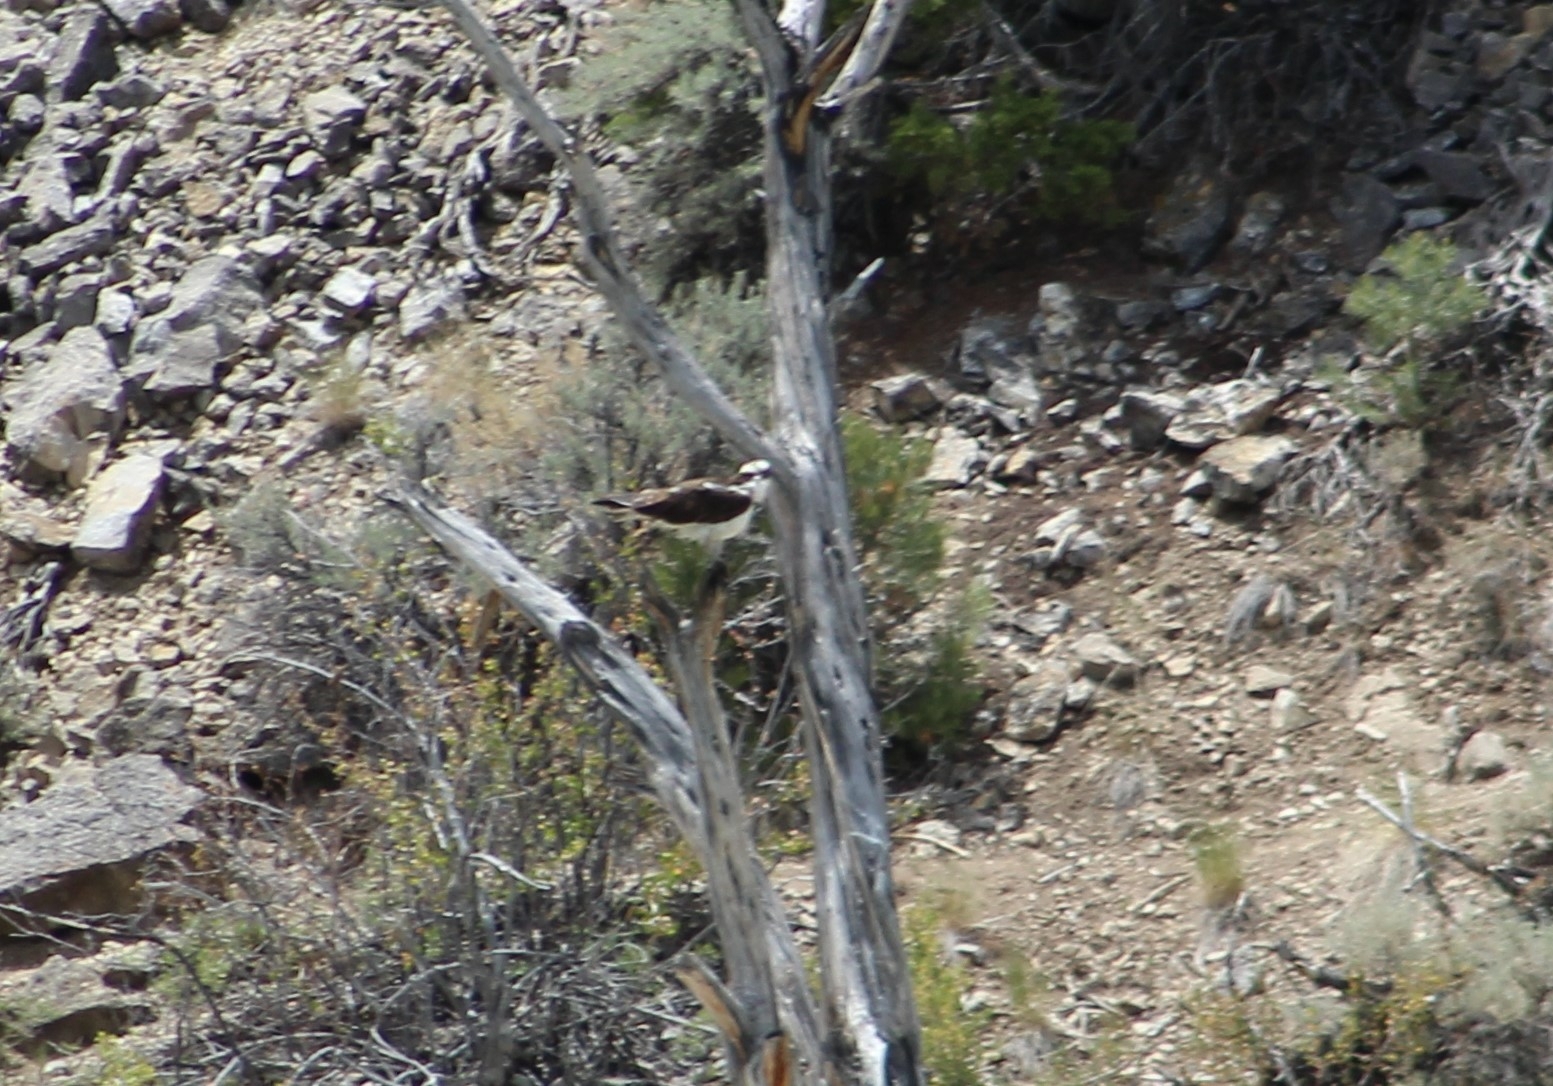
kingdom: Animalia
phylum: Chordata
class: Aves
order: Accipitriformes
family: Pandionidae
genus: Pandion
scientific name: Pandion haliaetus
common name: Osprey
